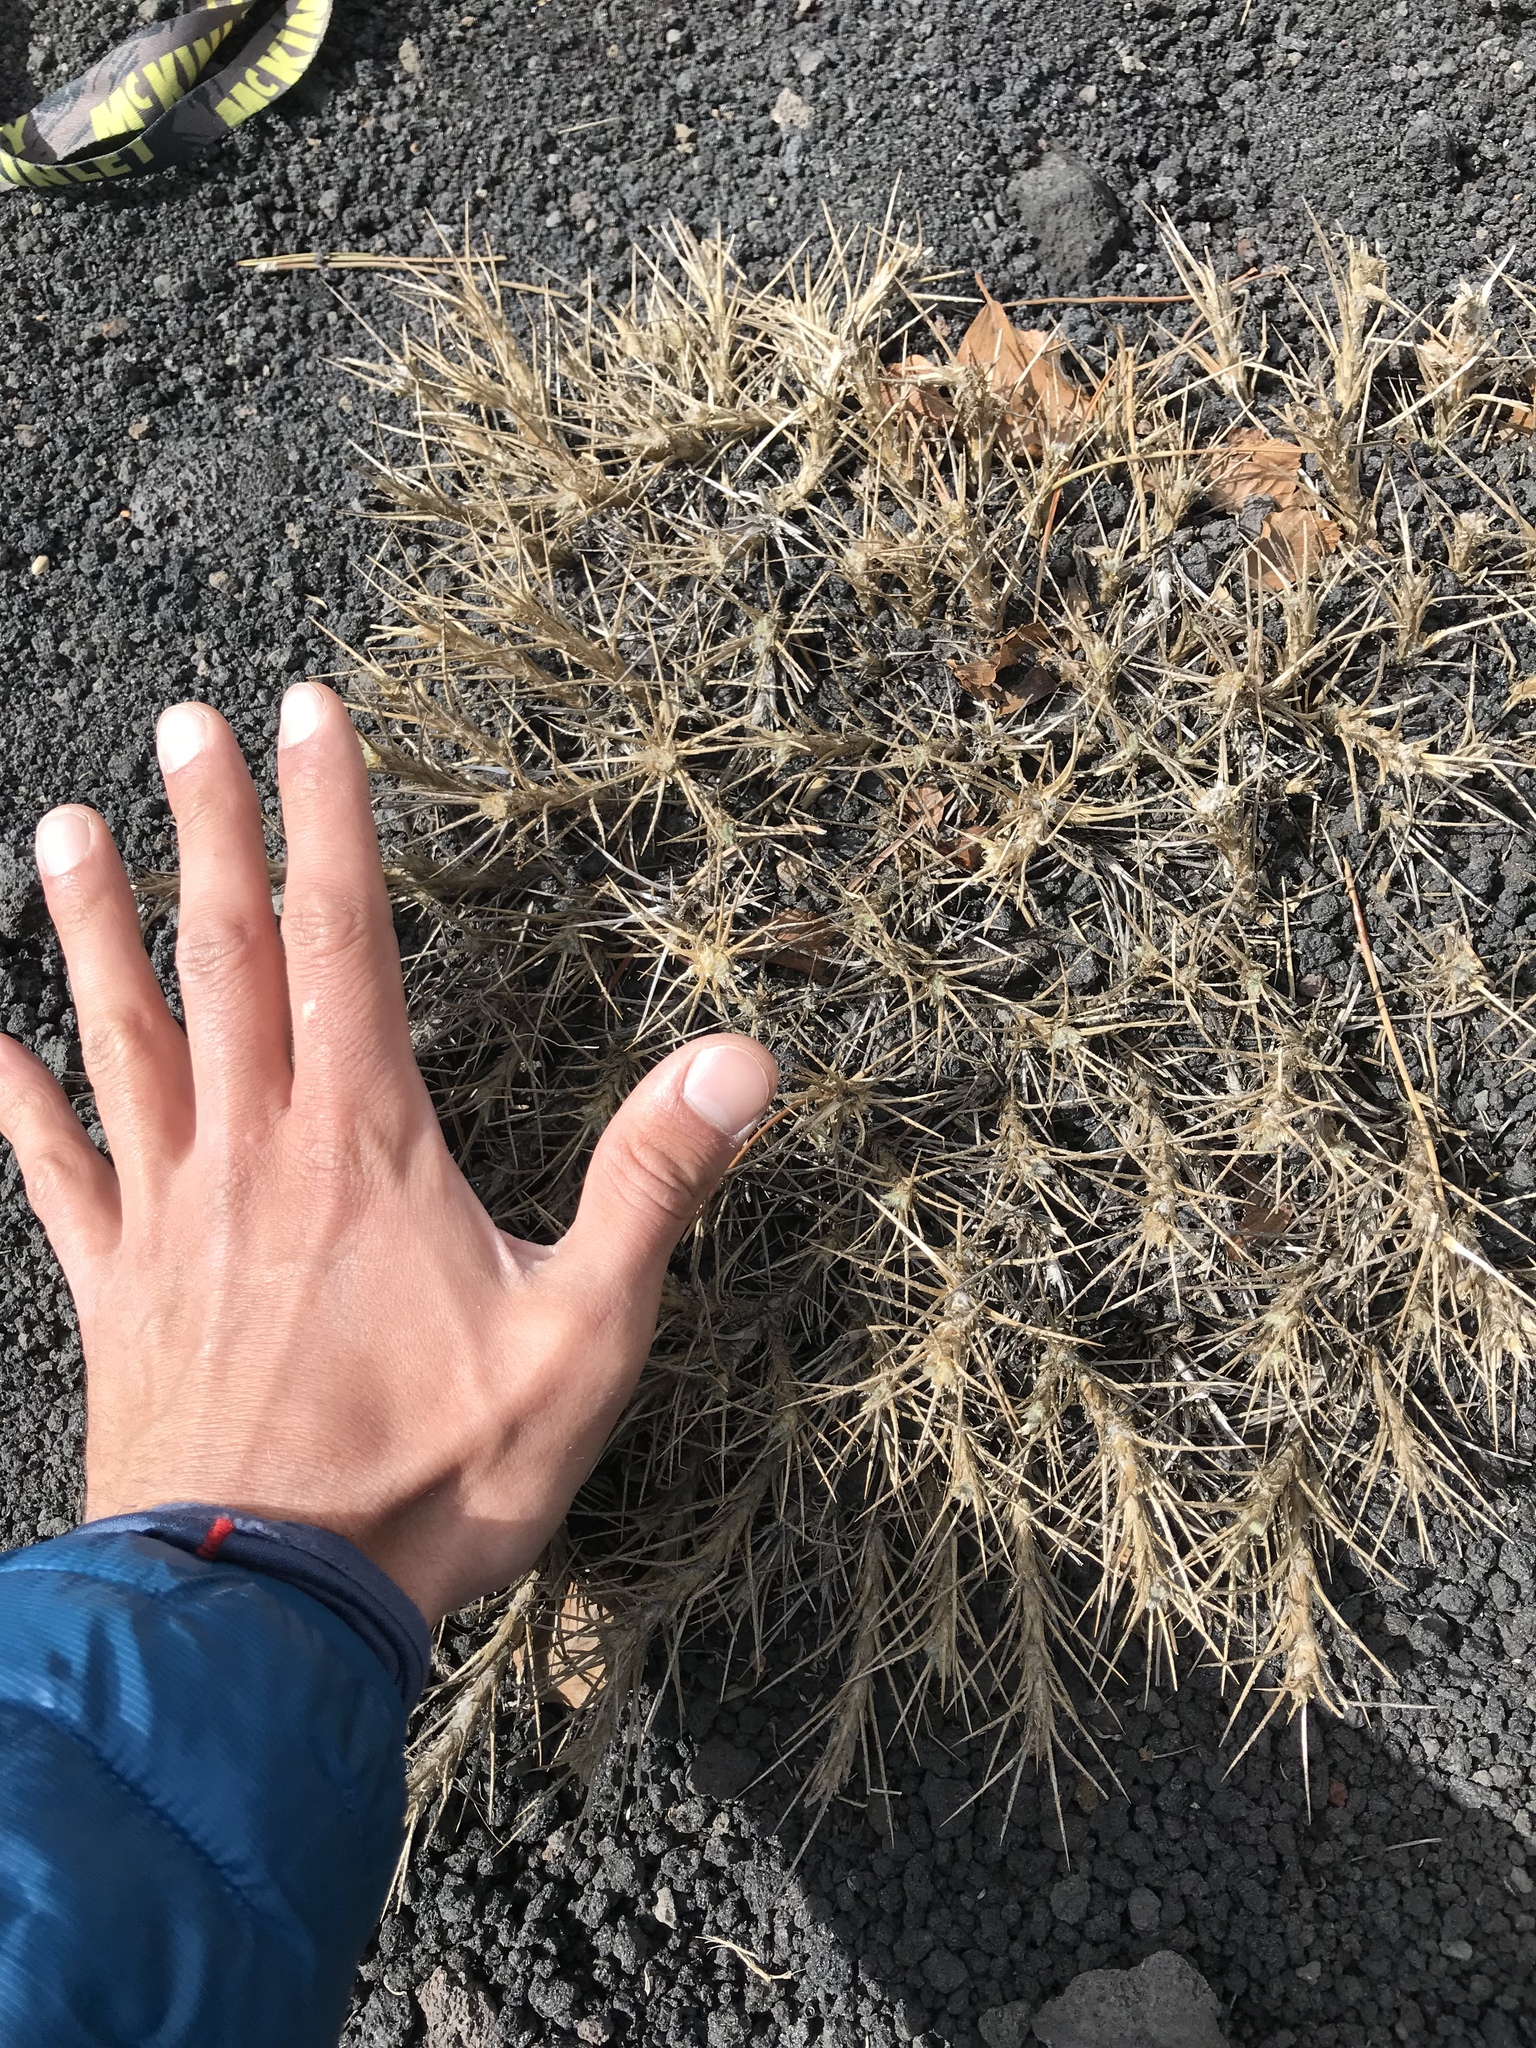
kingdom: Plantae
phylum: Tracheophyta
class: Magnoliopsida
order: Fabales
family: Fabaceae
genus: Astragalus
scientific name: Astragalus siculus
